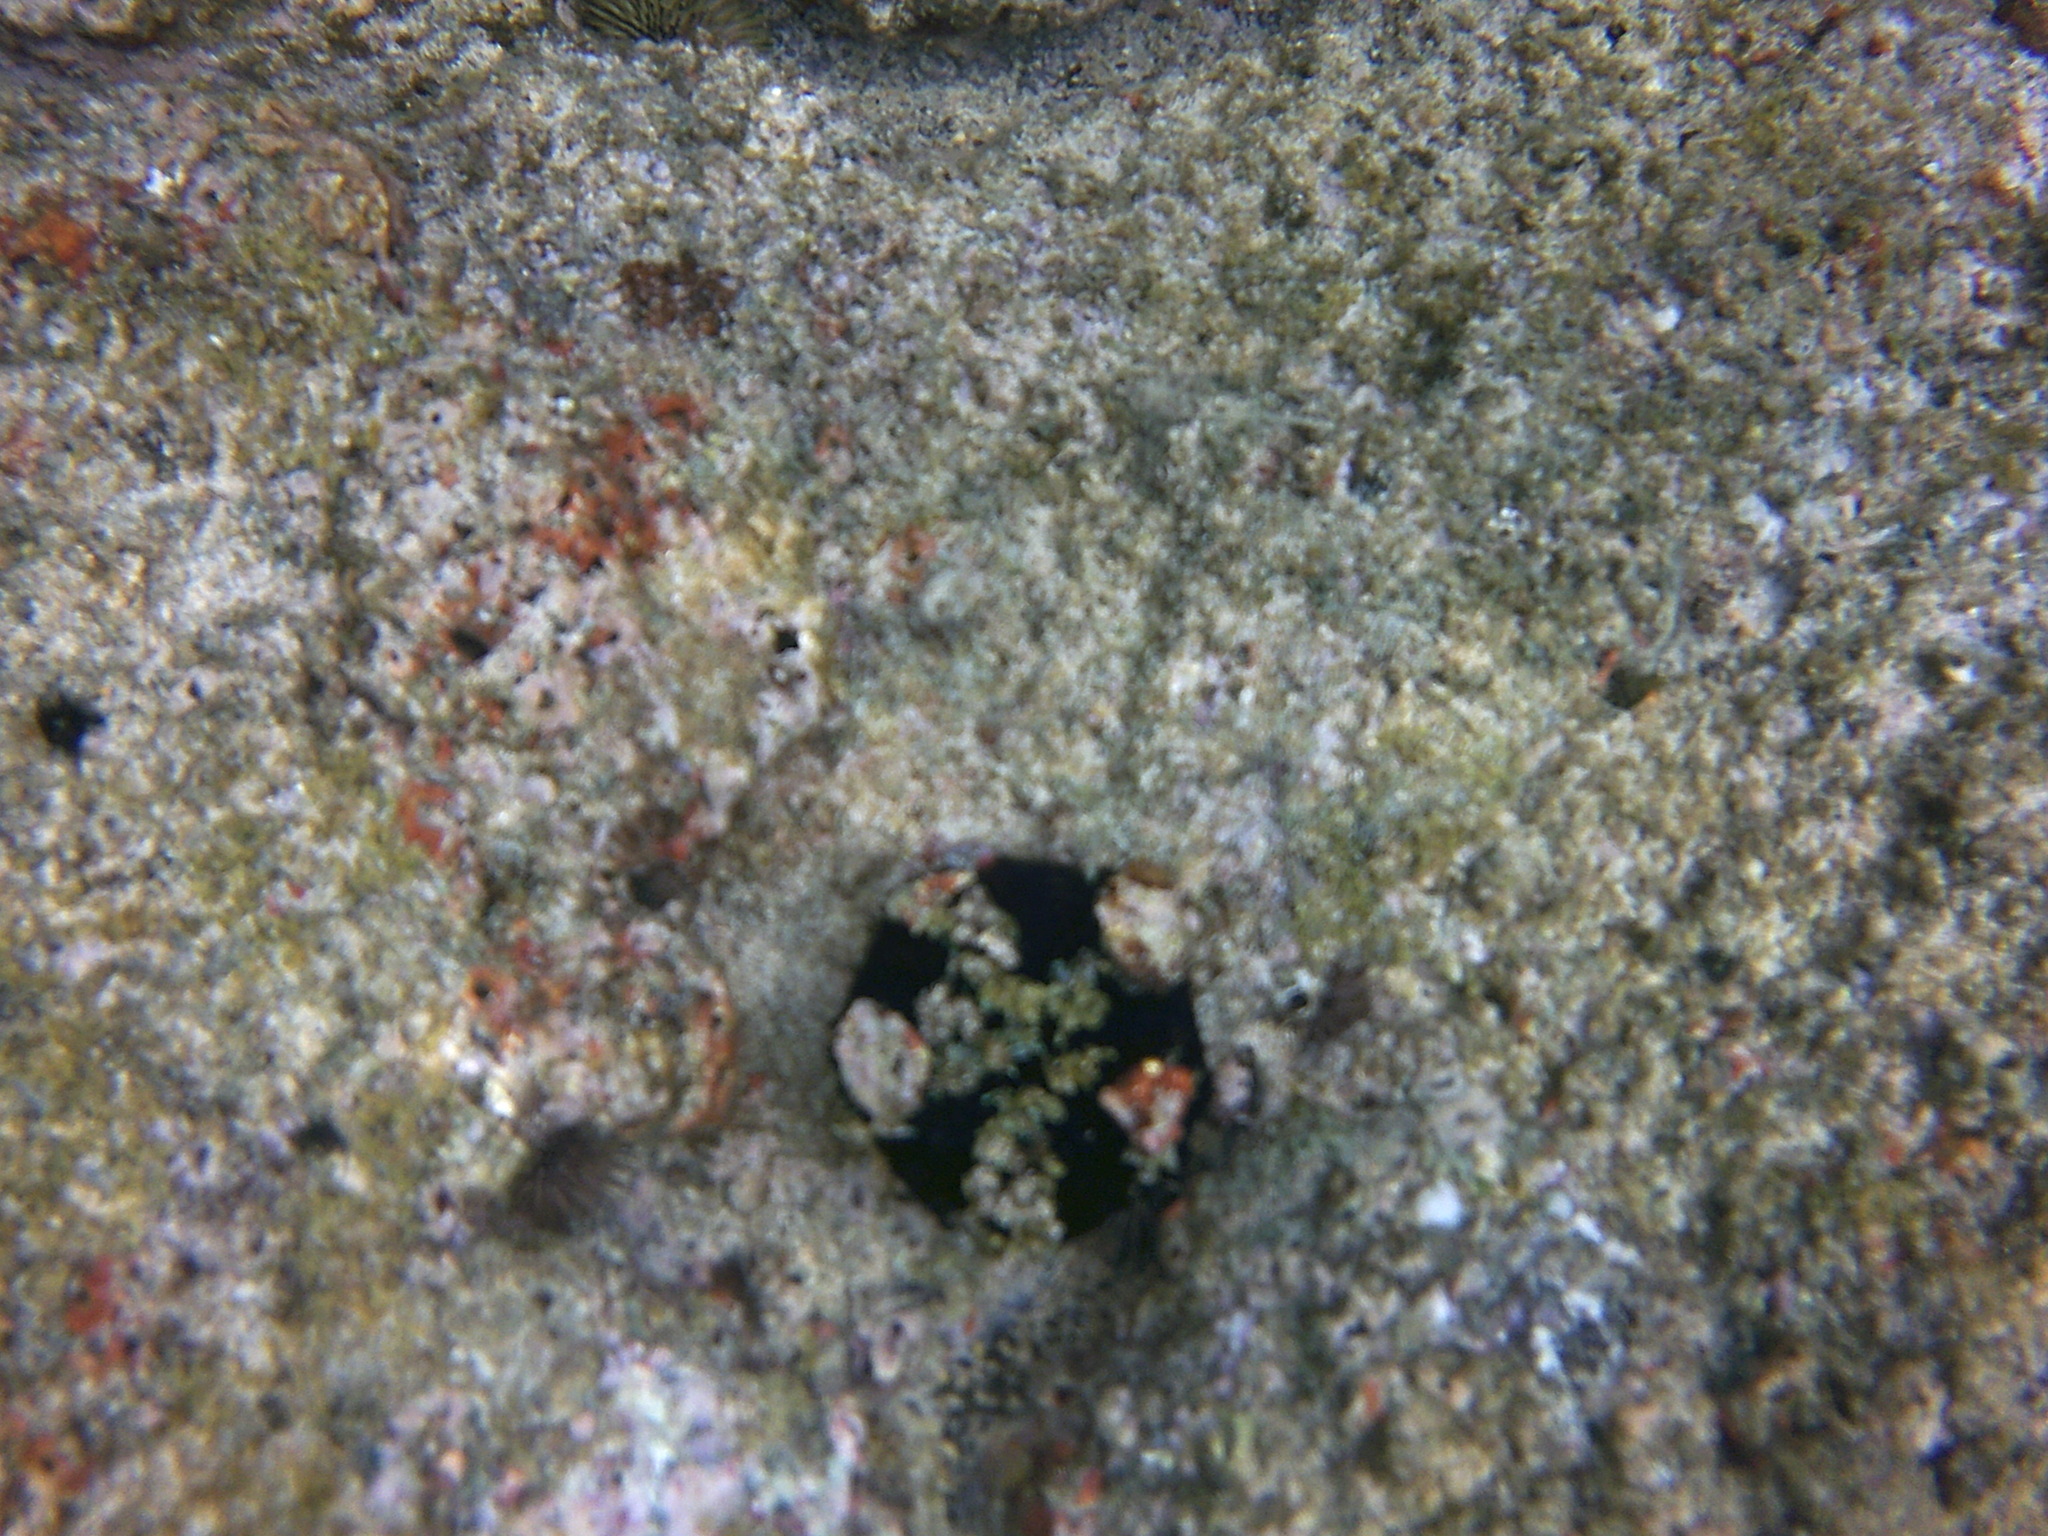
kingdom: Animalia
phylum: Echinodermata
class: Echinoidea
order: Camarodonta
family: Toxopneustidae
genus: Tripneustes
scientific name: Tripneustes gratilla
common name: Bischofsmützenseeigel
